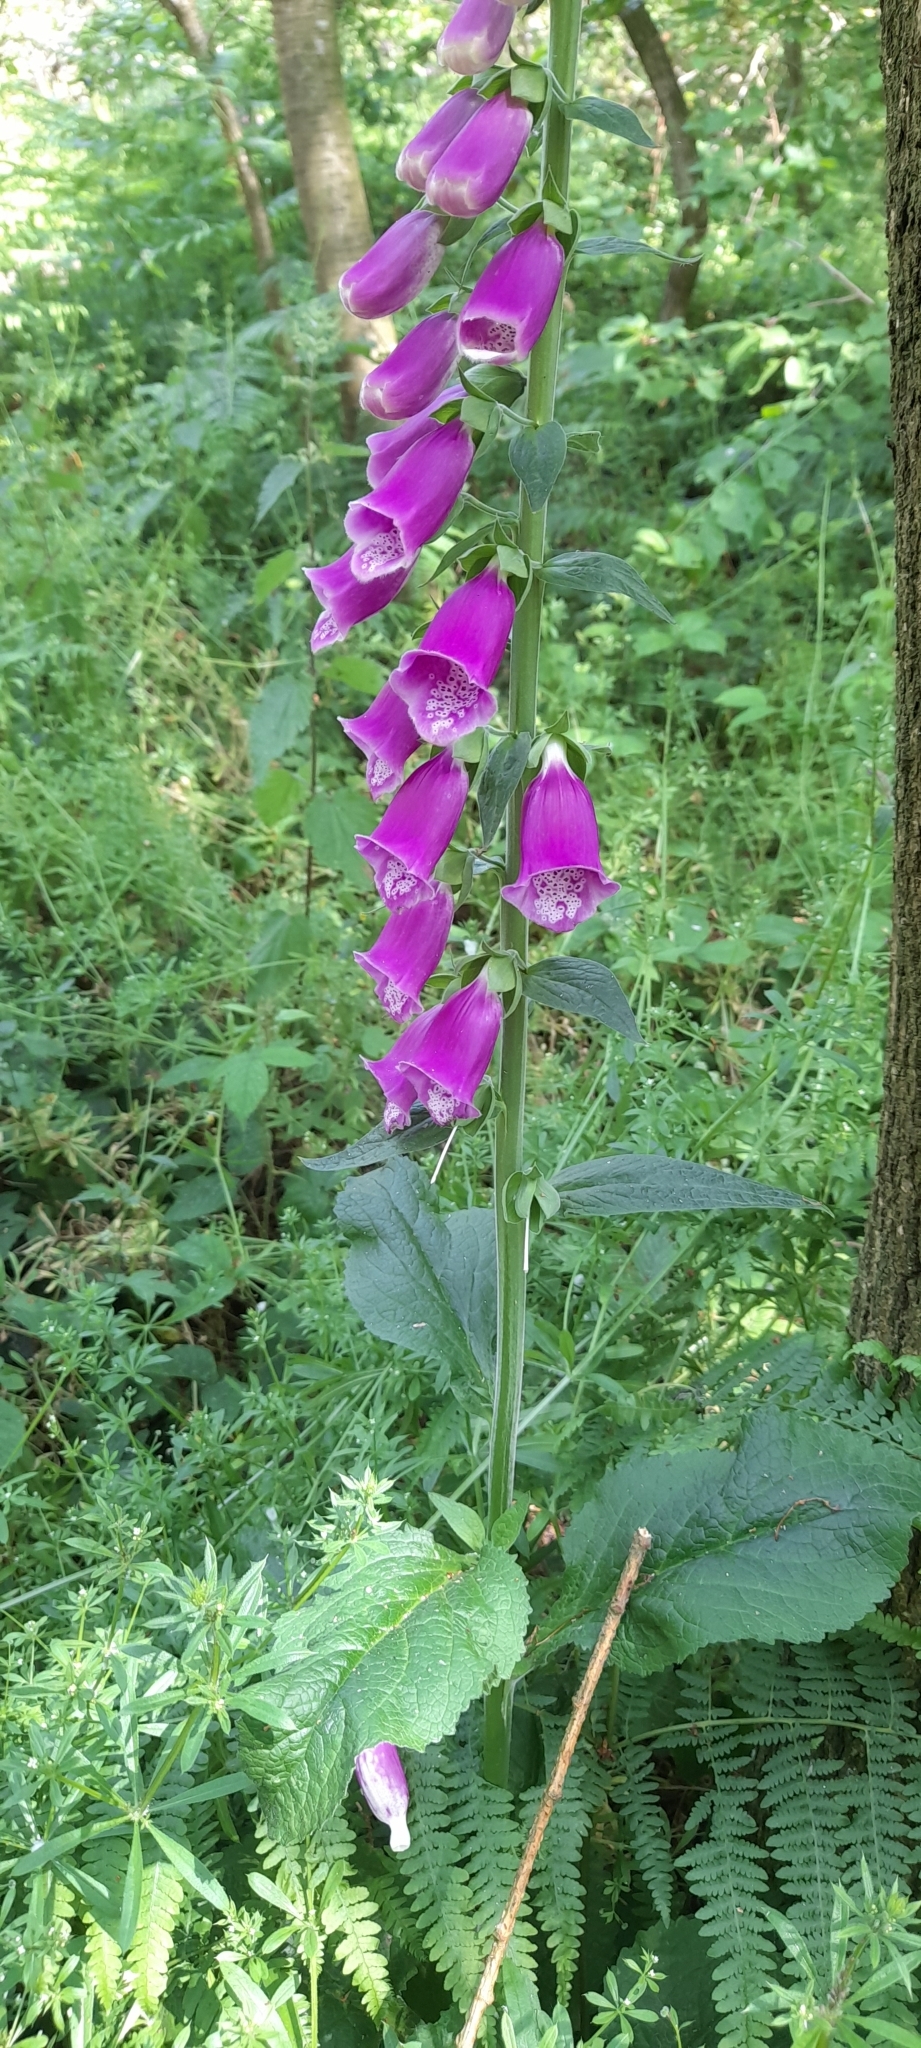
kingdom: Plantae
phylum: Tracheophyta
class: Magnoliopsida
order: Lamiales
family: Plantaginaceae
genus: Digitalis
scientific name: Digitalis purpurea
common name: Foxglove
